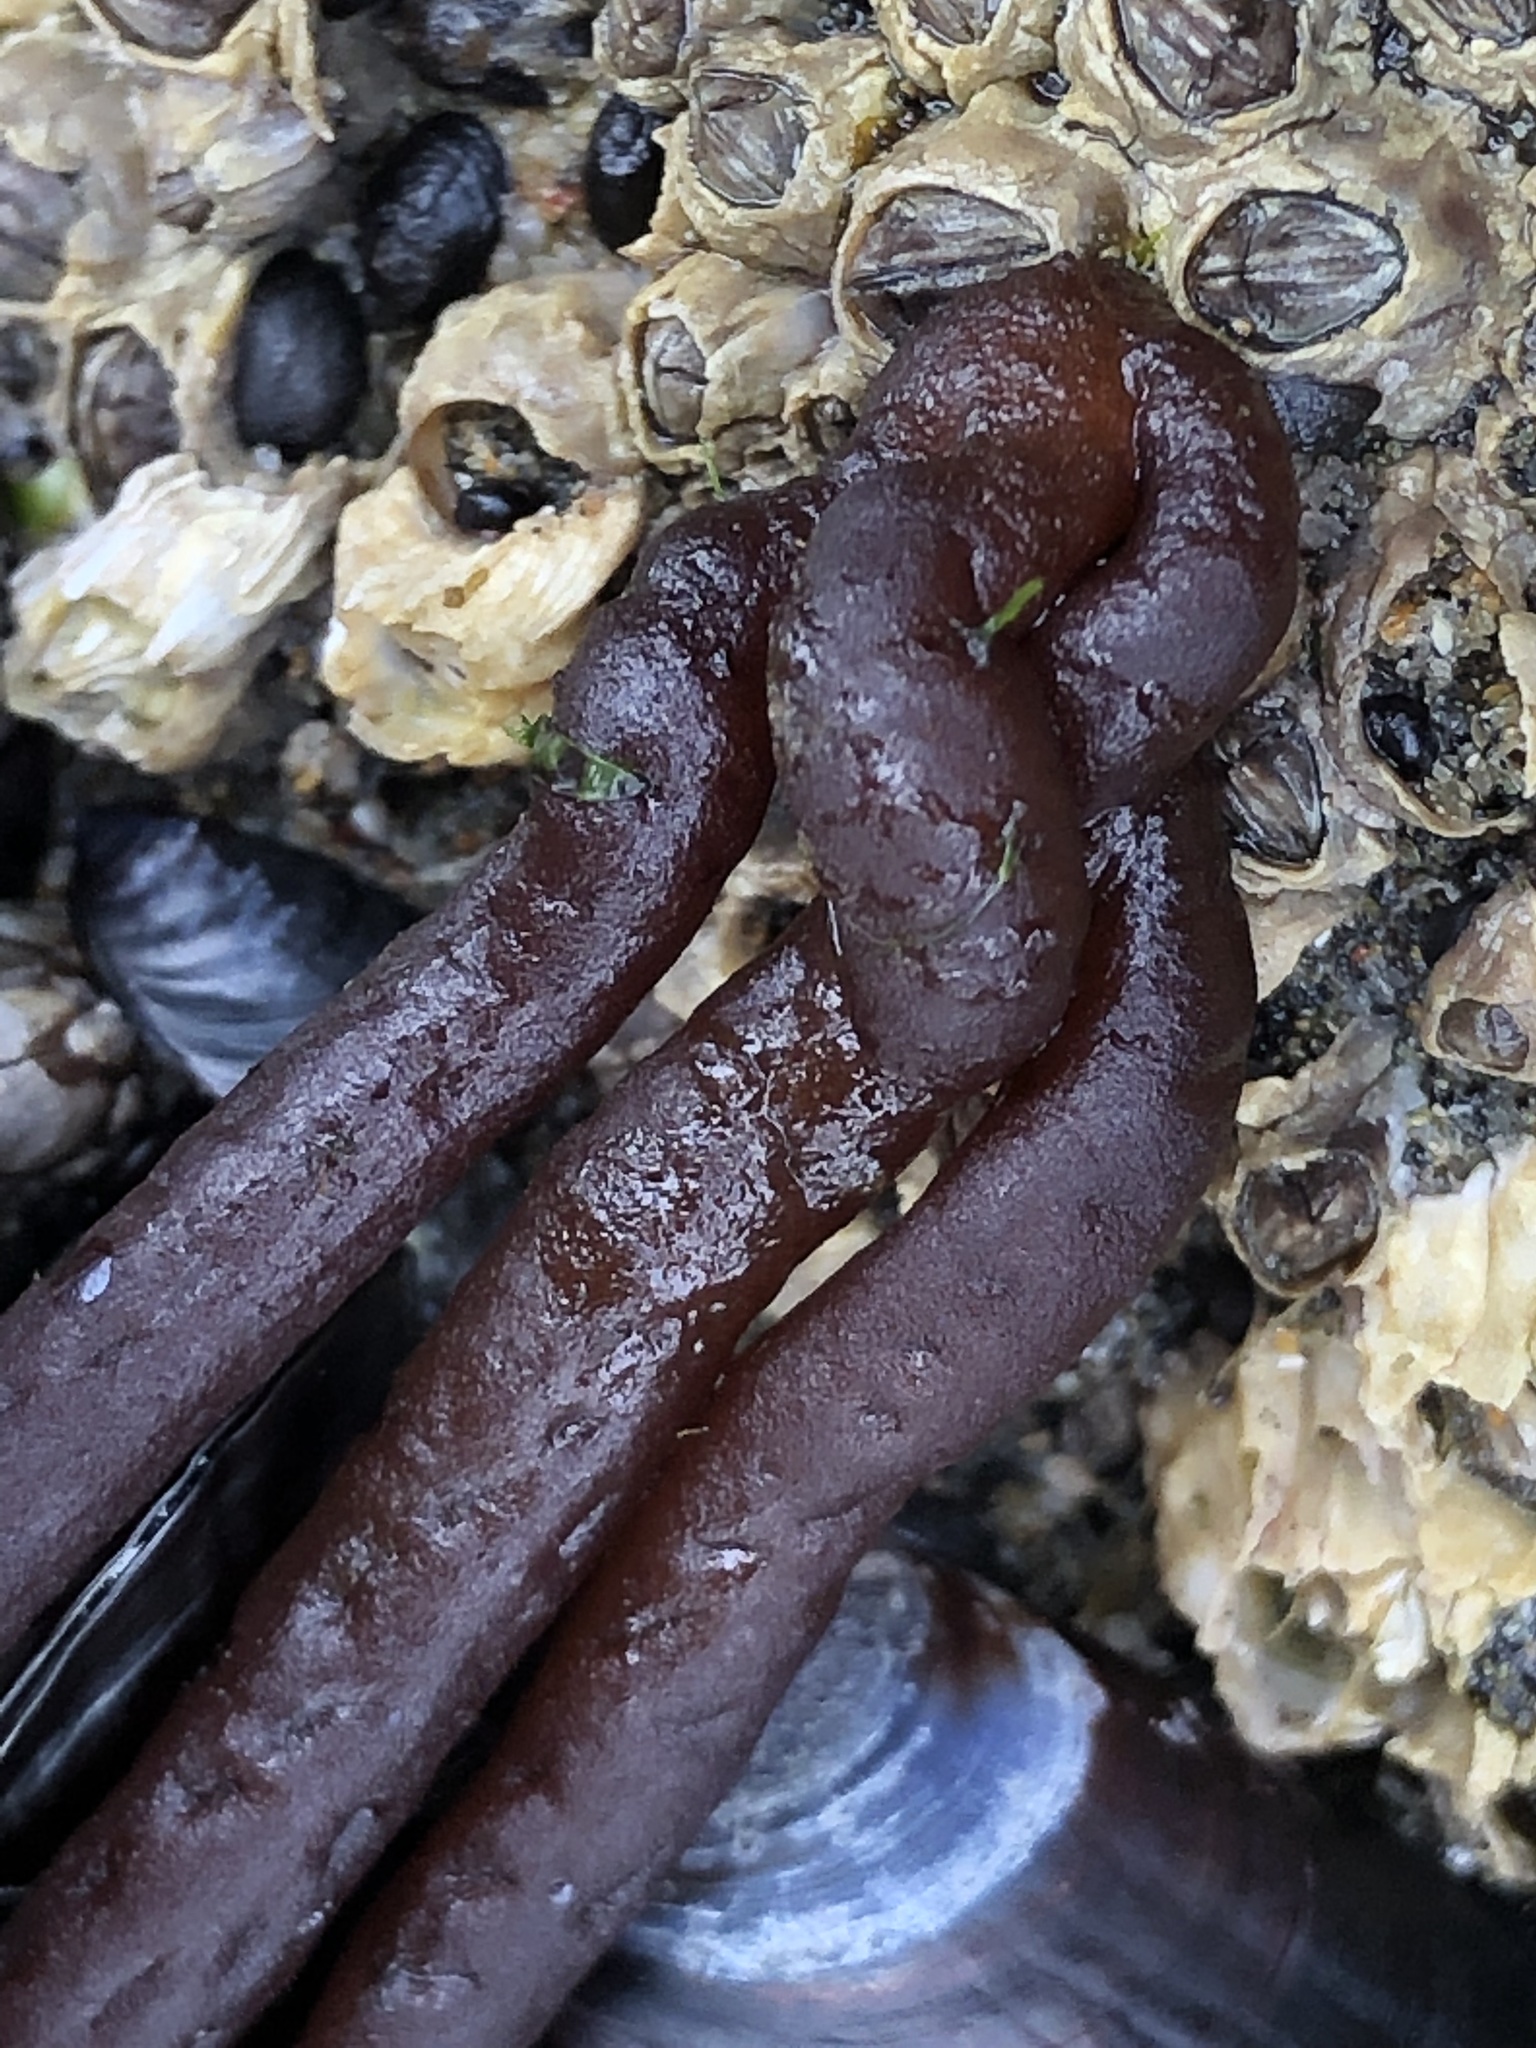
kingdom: Plantae
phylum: Rhodophyta
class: Florideophyceae
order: Nemaliales
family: Nemaliaceae
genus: Nemalion
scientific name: Nemalion elminthoides
